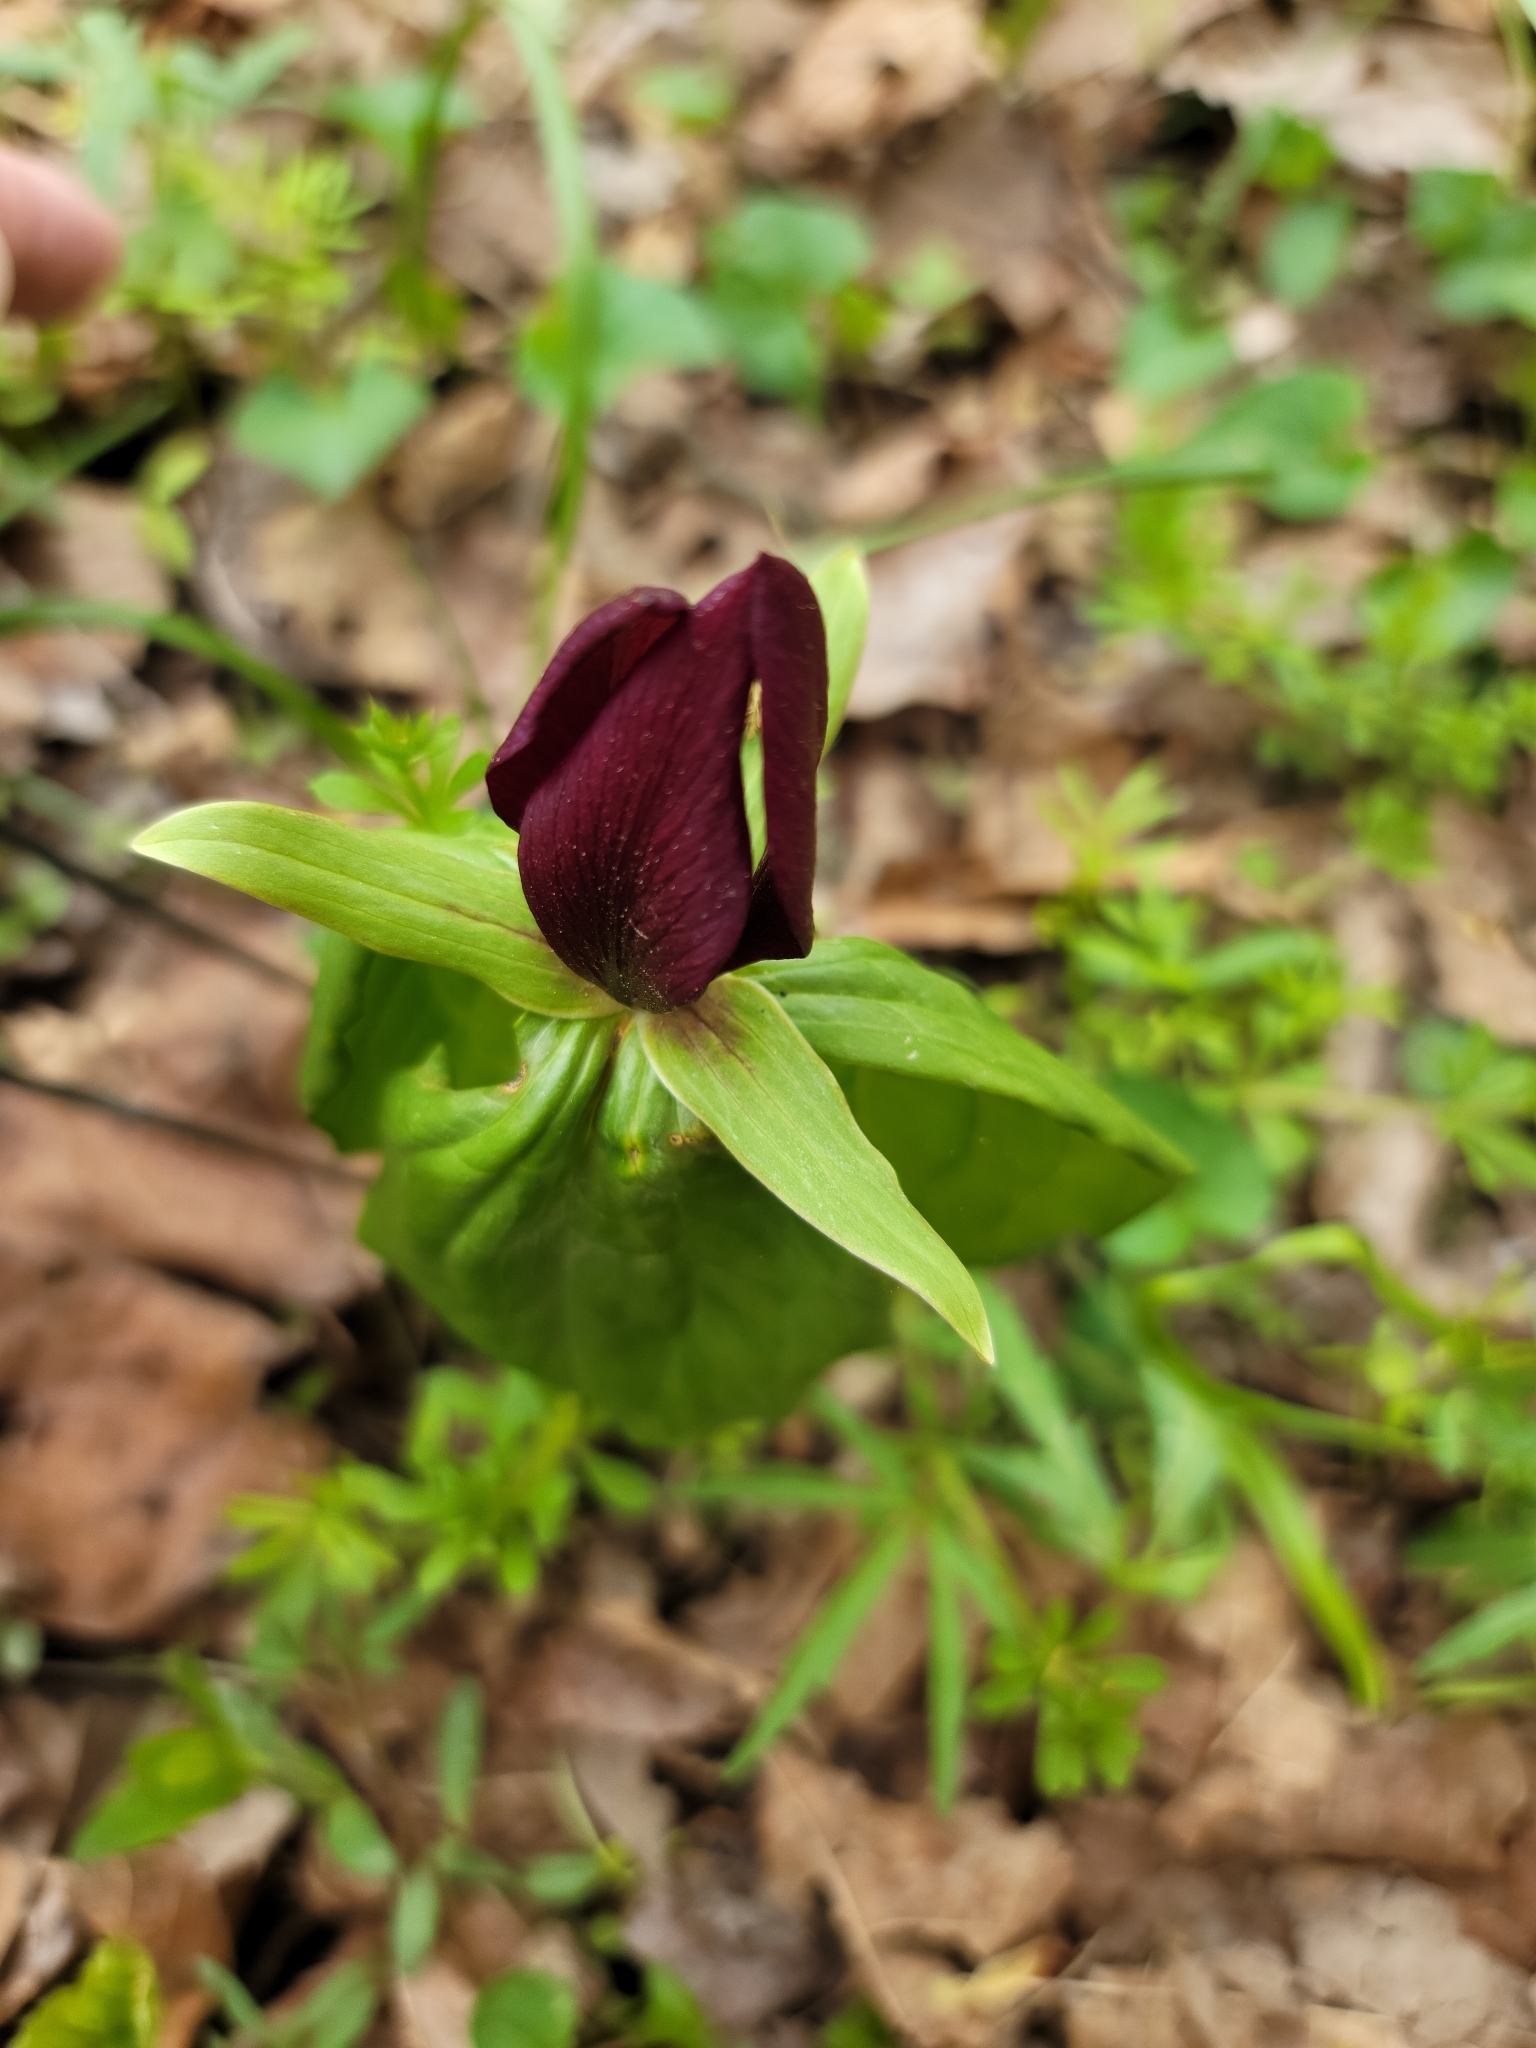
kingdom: Plantae
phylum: Tracheophyta
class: Liliopsida
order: Liliales
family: Melanthiaceae
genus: Trillium
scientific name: Trillium sessile
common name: Sessile trillium
